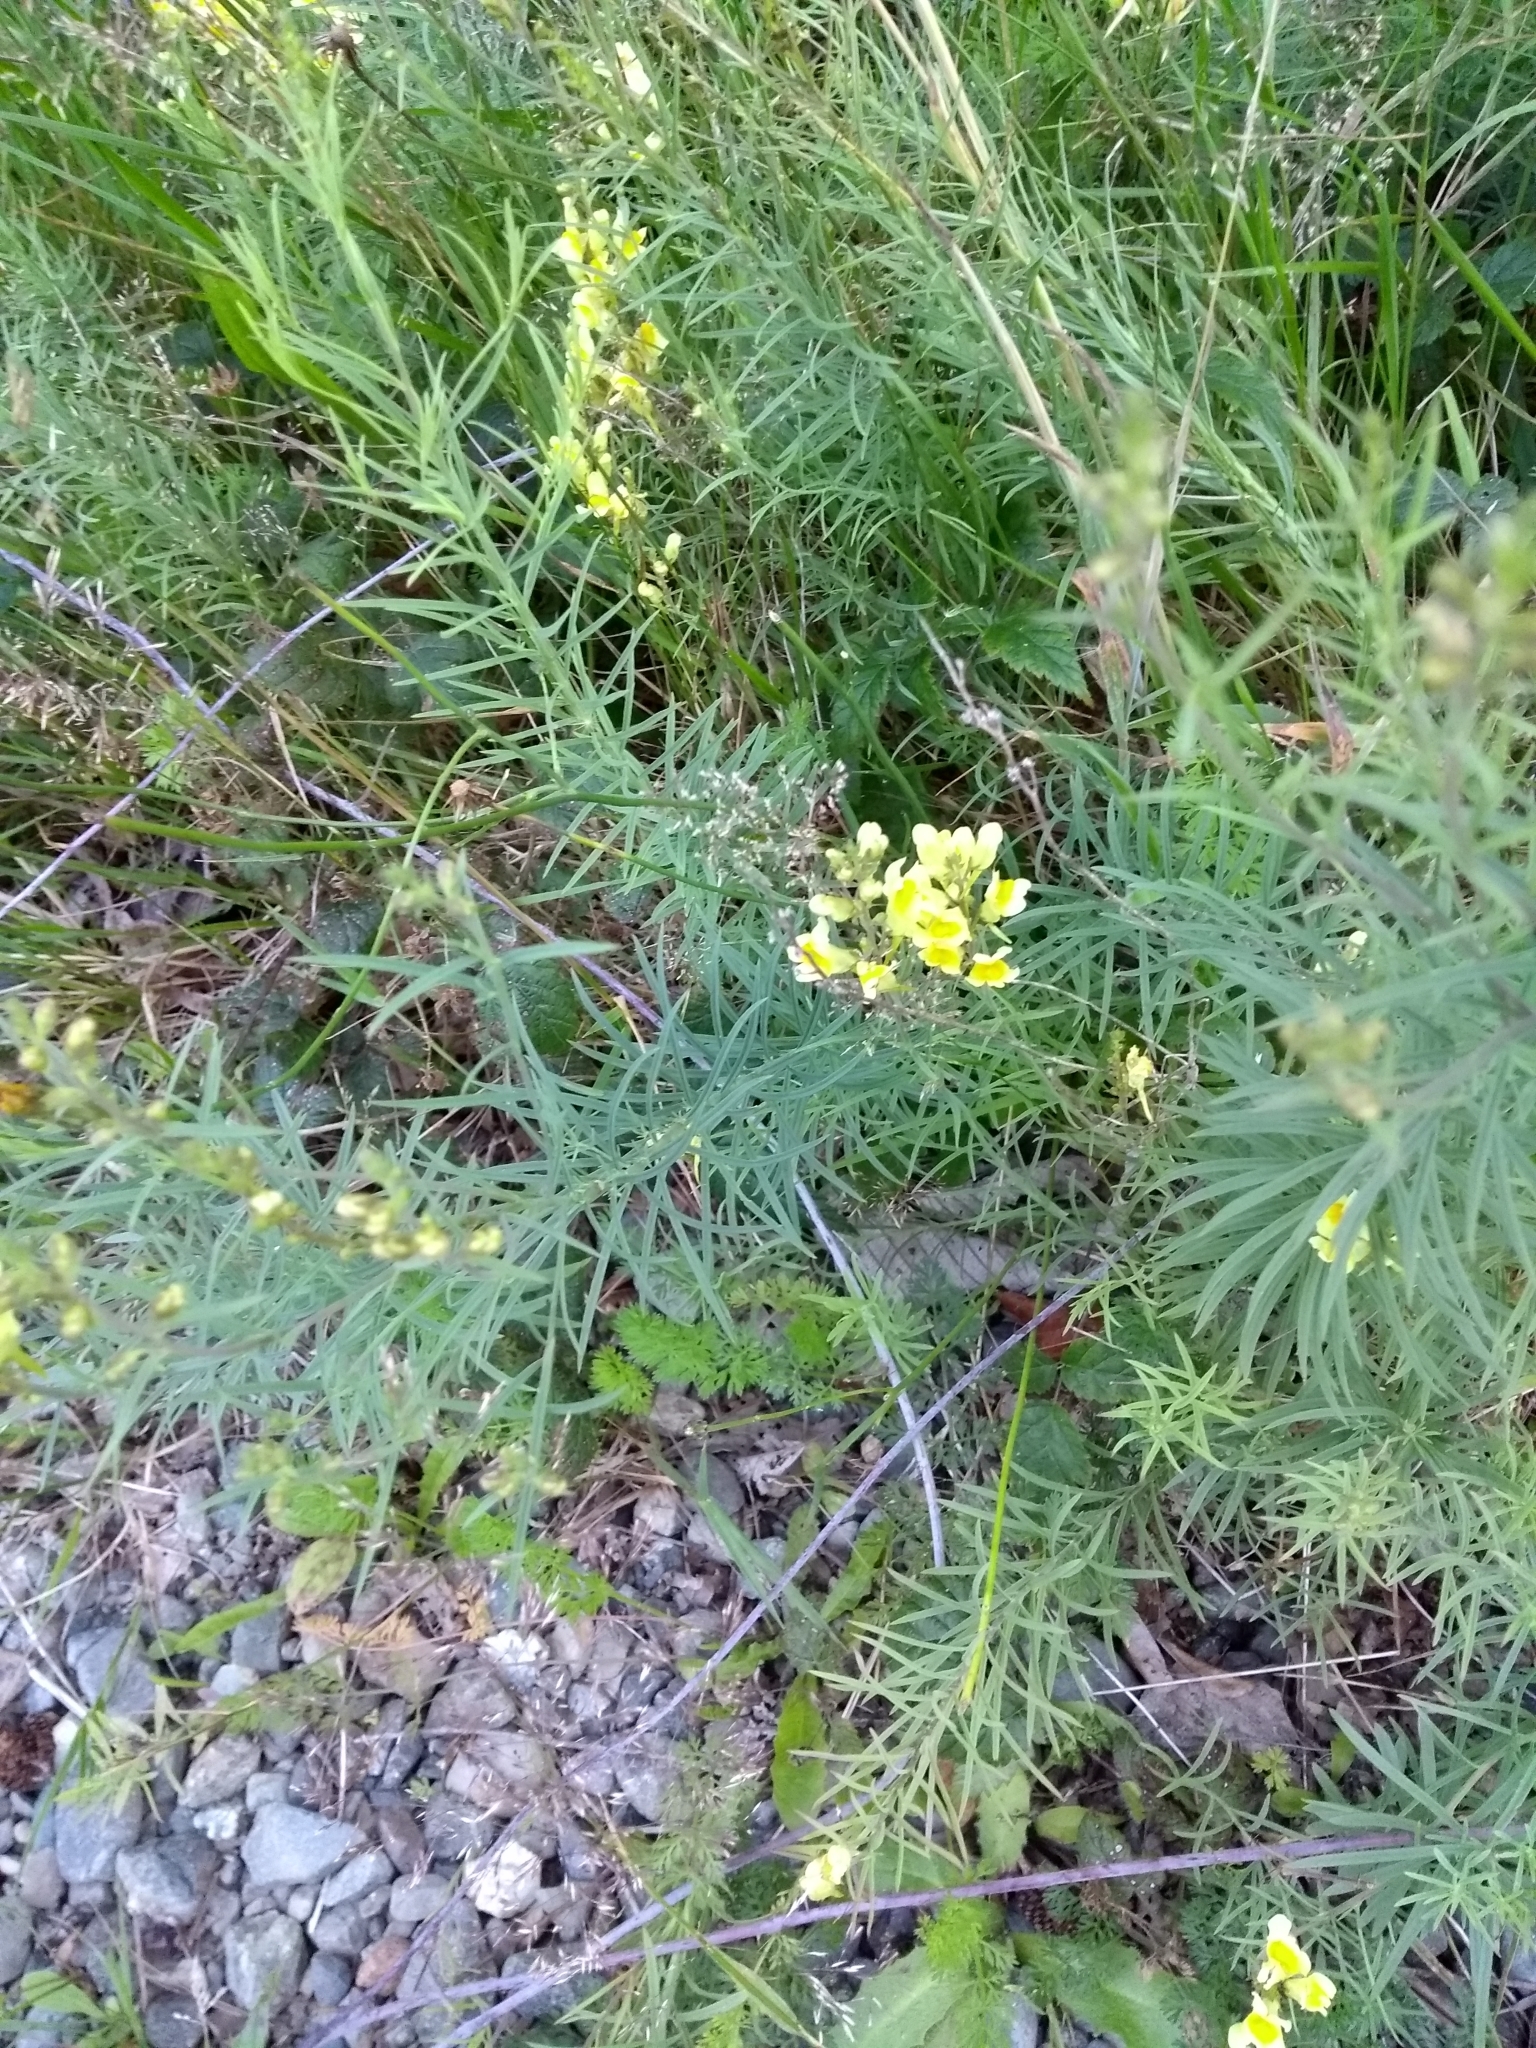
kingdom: Plantae
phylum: Tracheophyta
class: Magnoliopsida
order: Lamiales
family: Plantaginaceae
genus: Linaria
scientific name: Linaria vulgaris
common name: Butter and eggs
